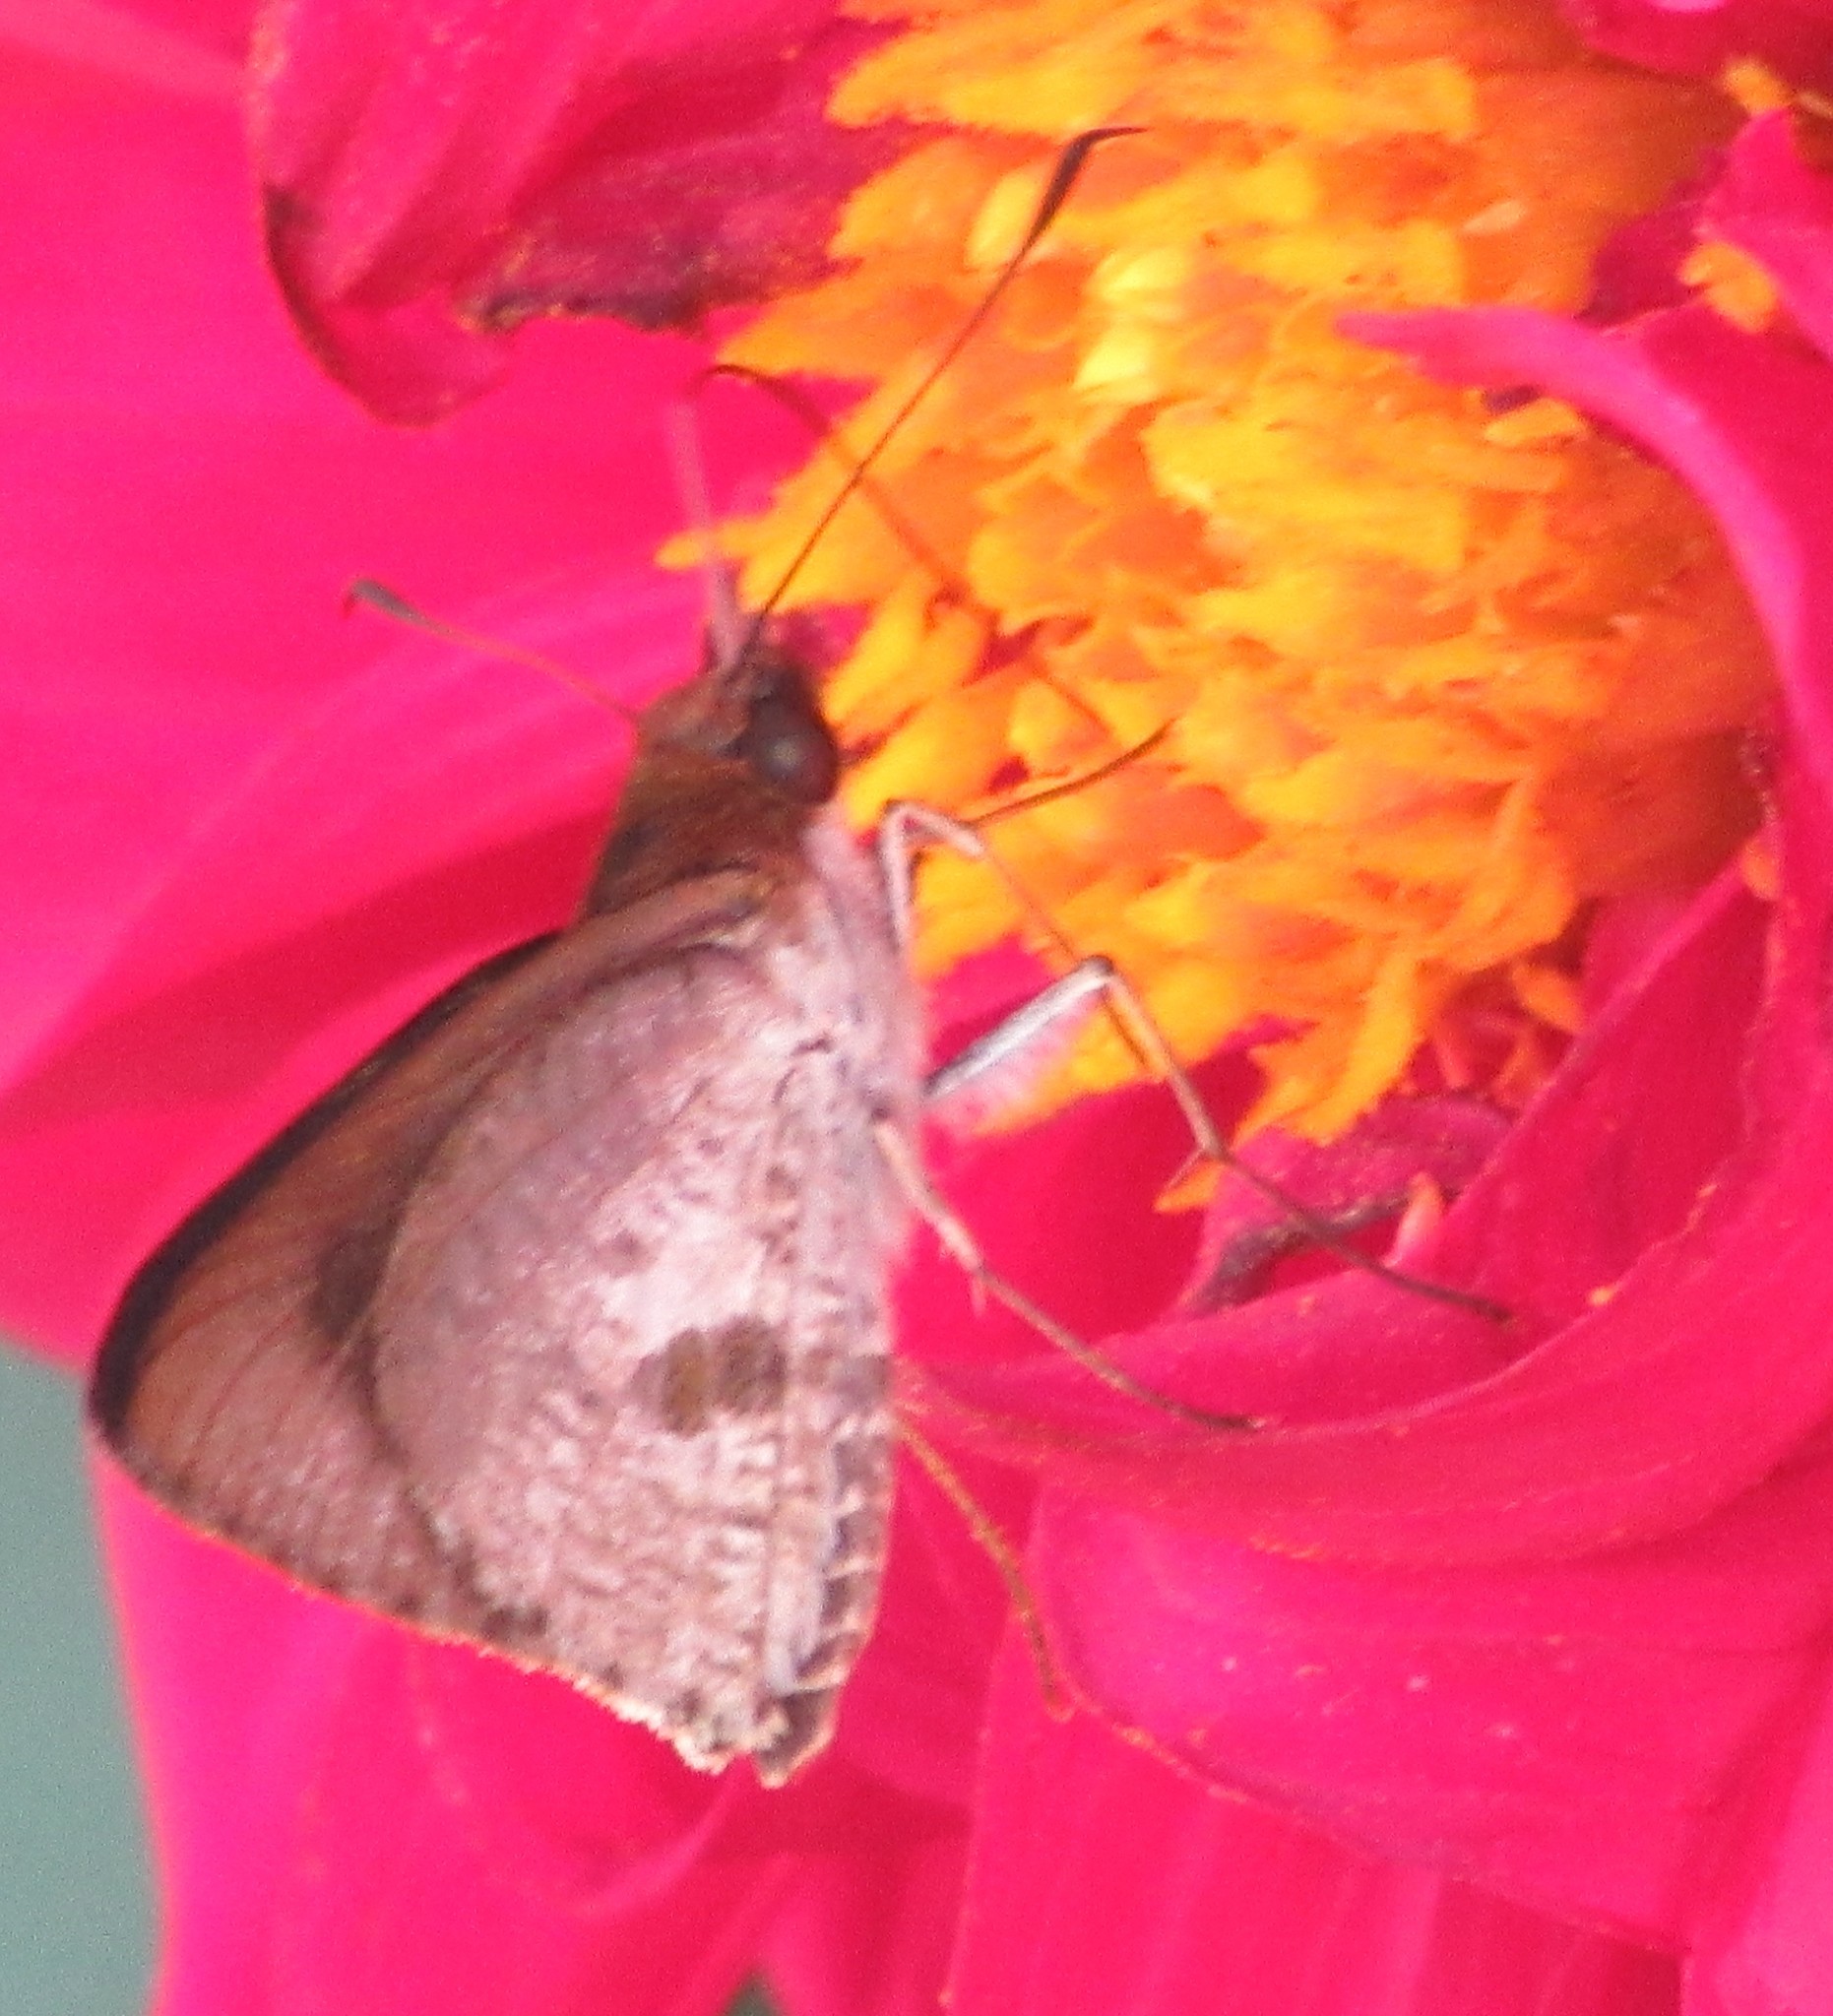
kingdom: Animalia
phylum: Arthropoda
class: Insecta
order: Lepidoptera
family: Hesperiidae
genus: Sabina
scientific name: Sabina sabina
